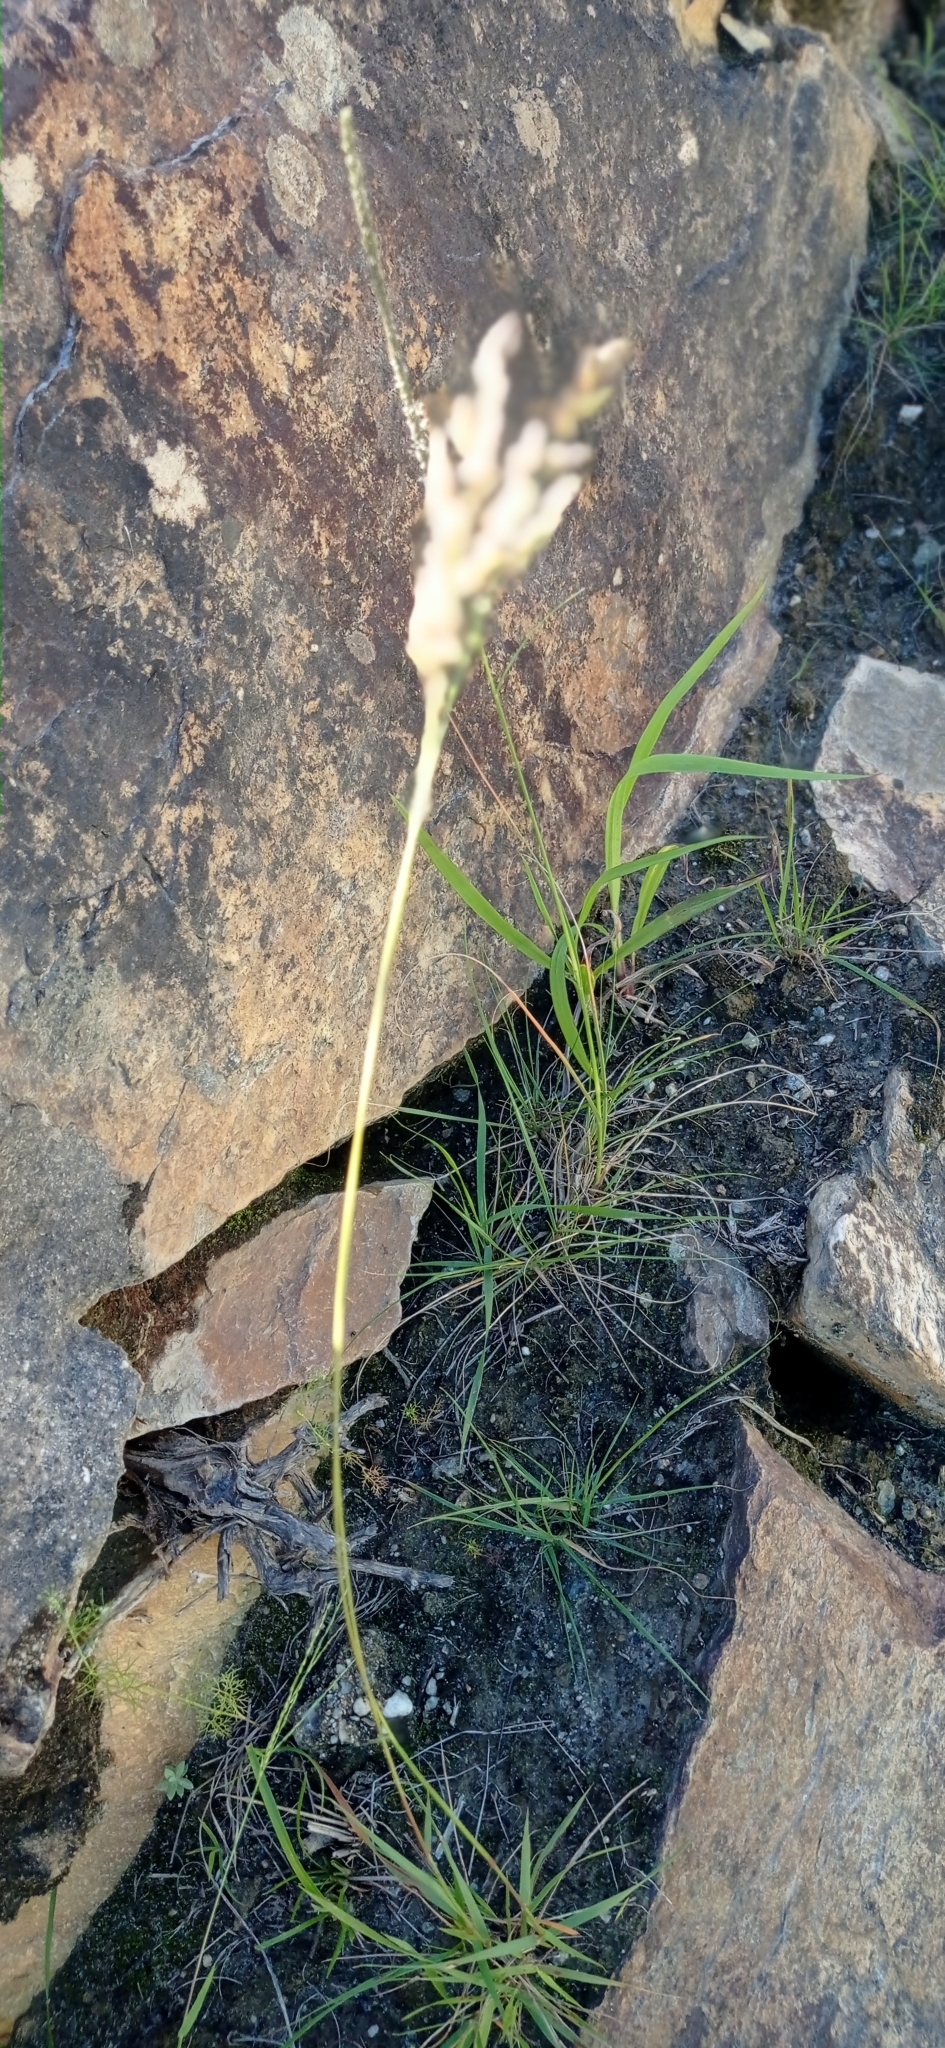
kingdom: Plantae
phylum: Tracheophyta
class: Liliopsida
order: Poales
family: Poaceae
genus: Eragrostis
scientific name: Eragrostis capensis
